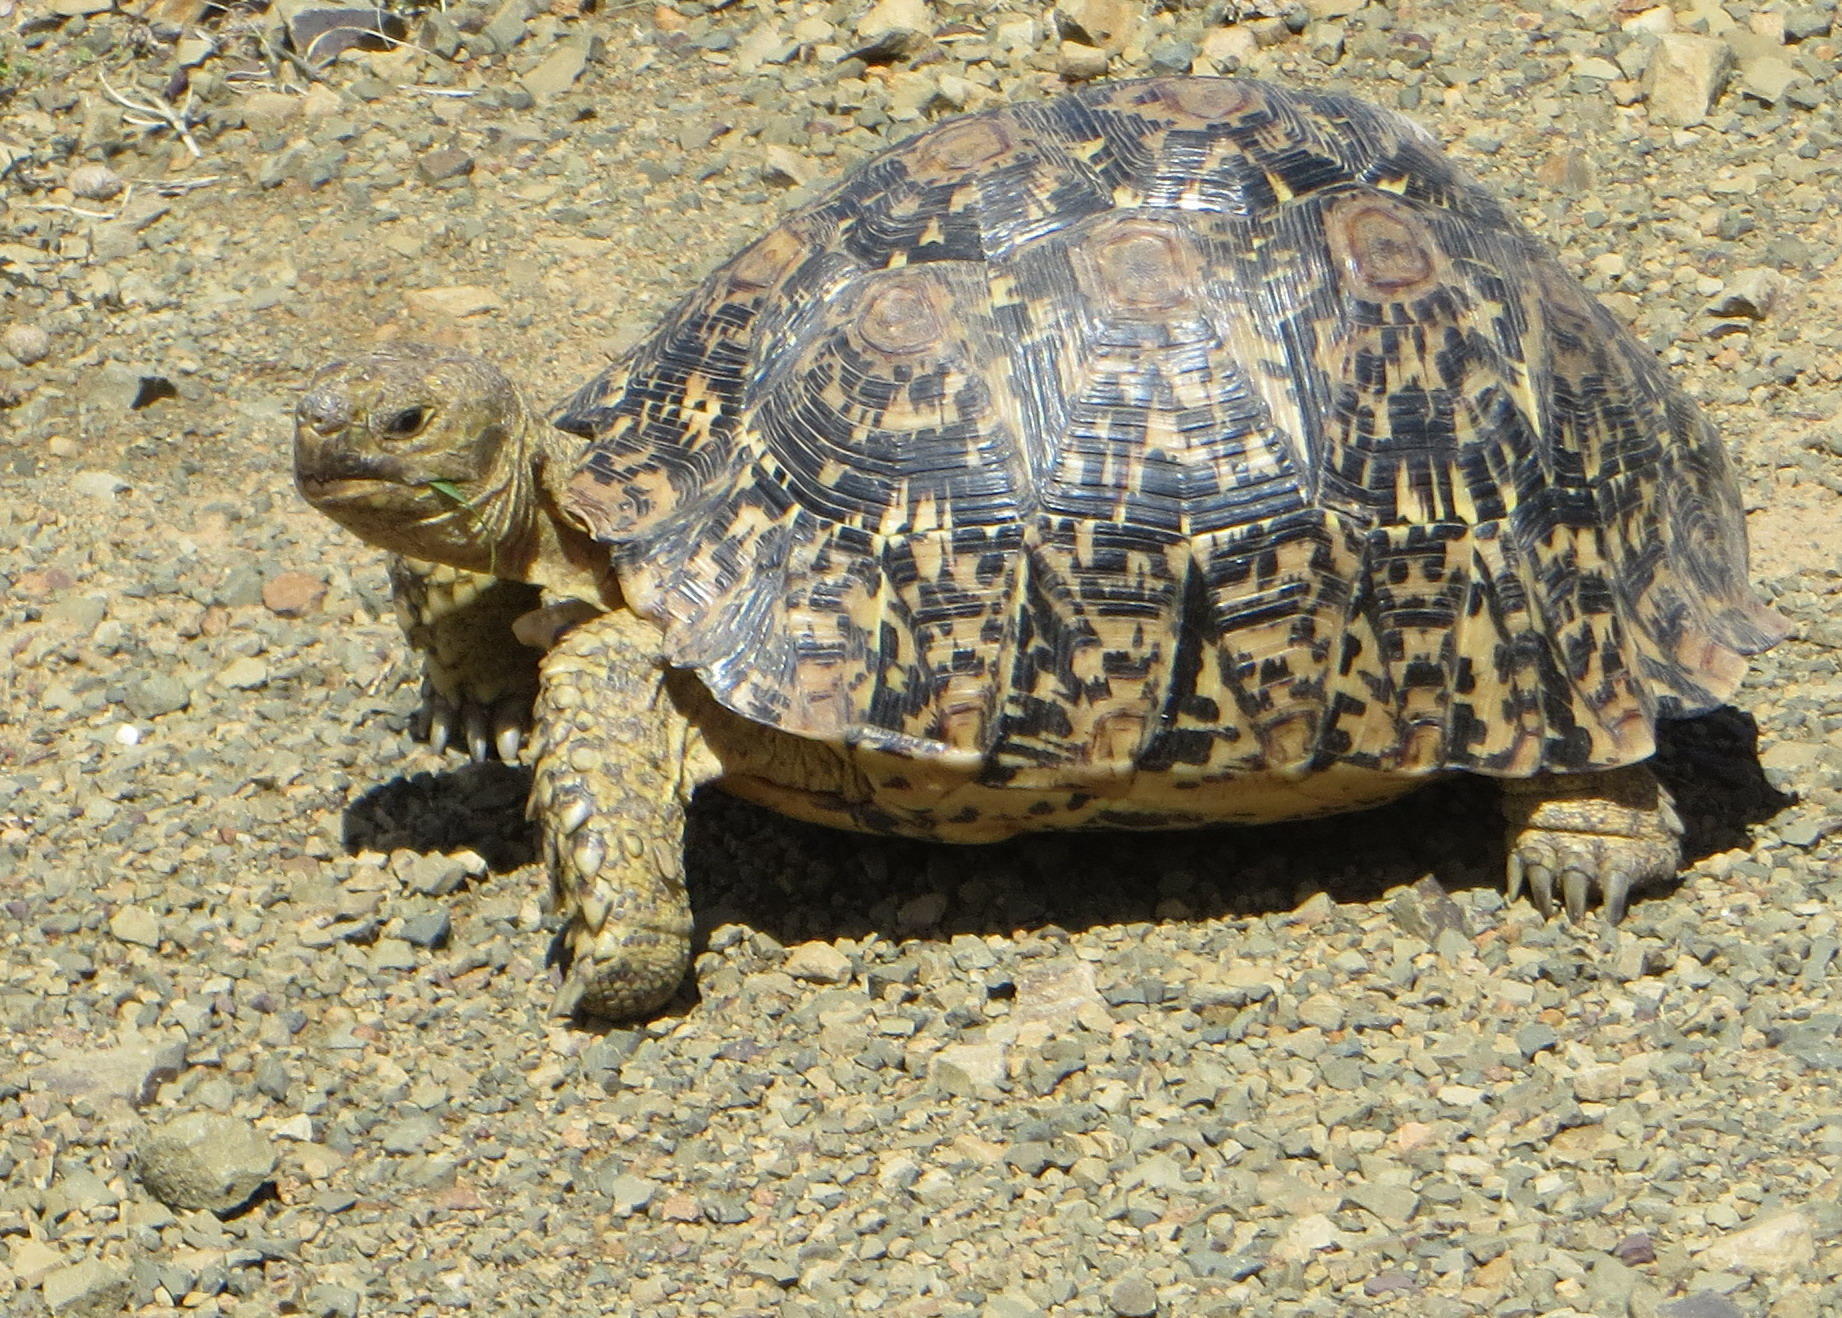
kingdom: Animalia
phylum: Chordata
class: Testudines
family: Testudinidae
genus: Stigmochelys
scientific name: Stigmochelys pardalis
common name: Leopard tortoise
